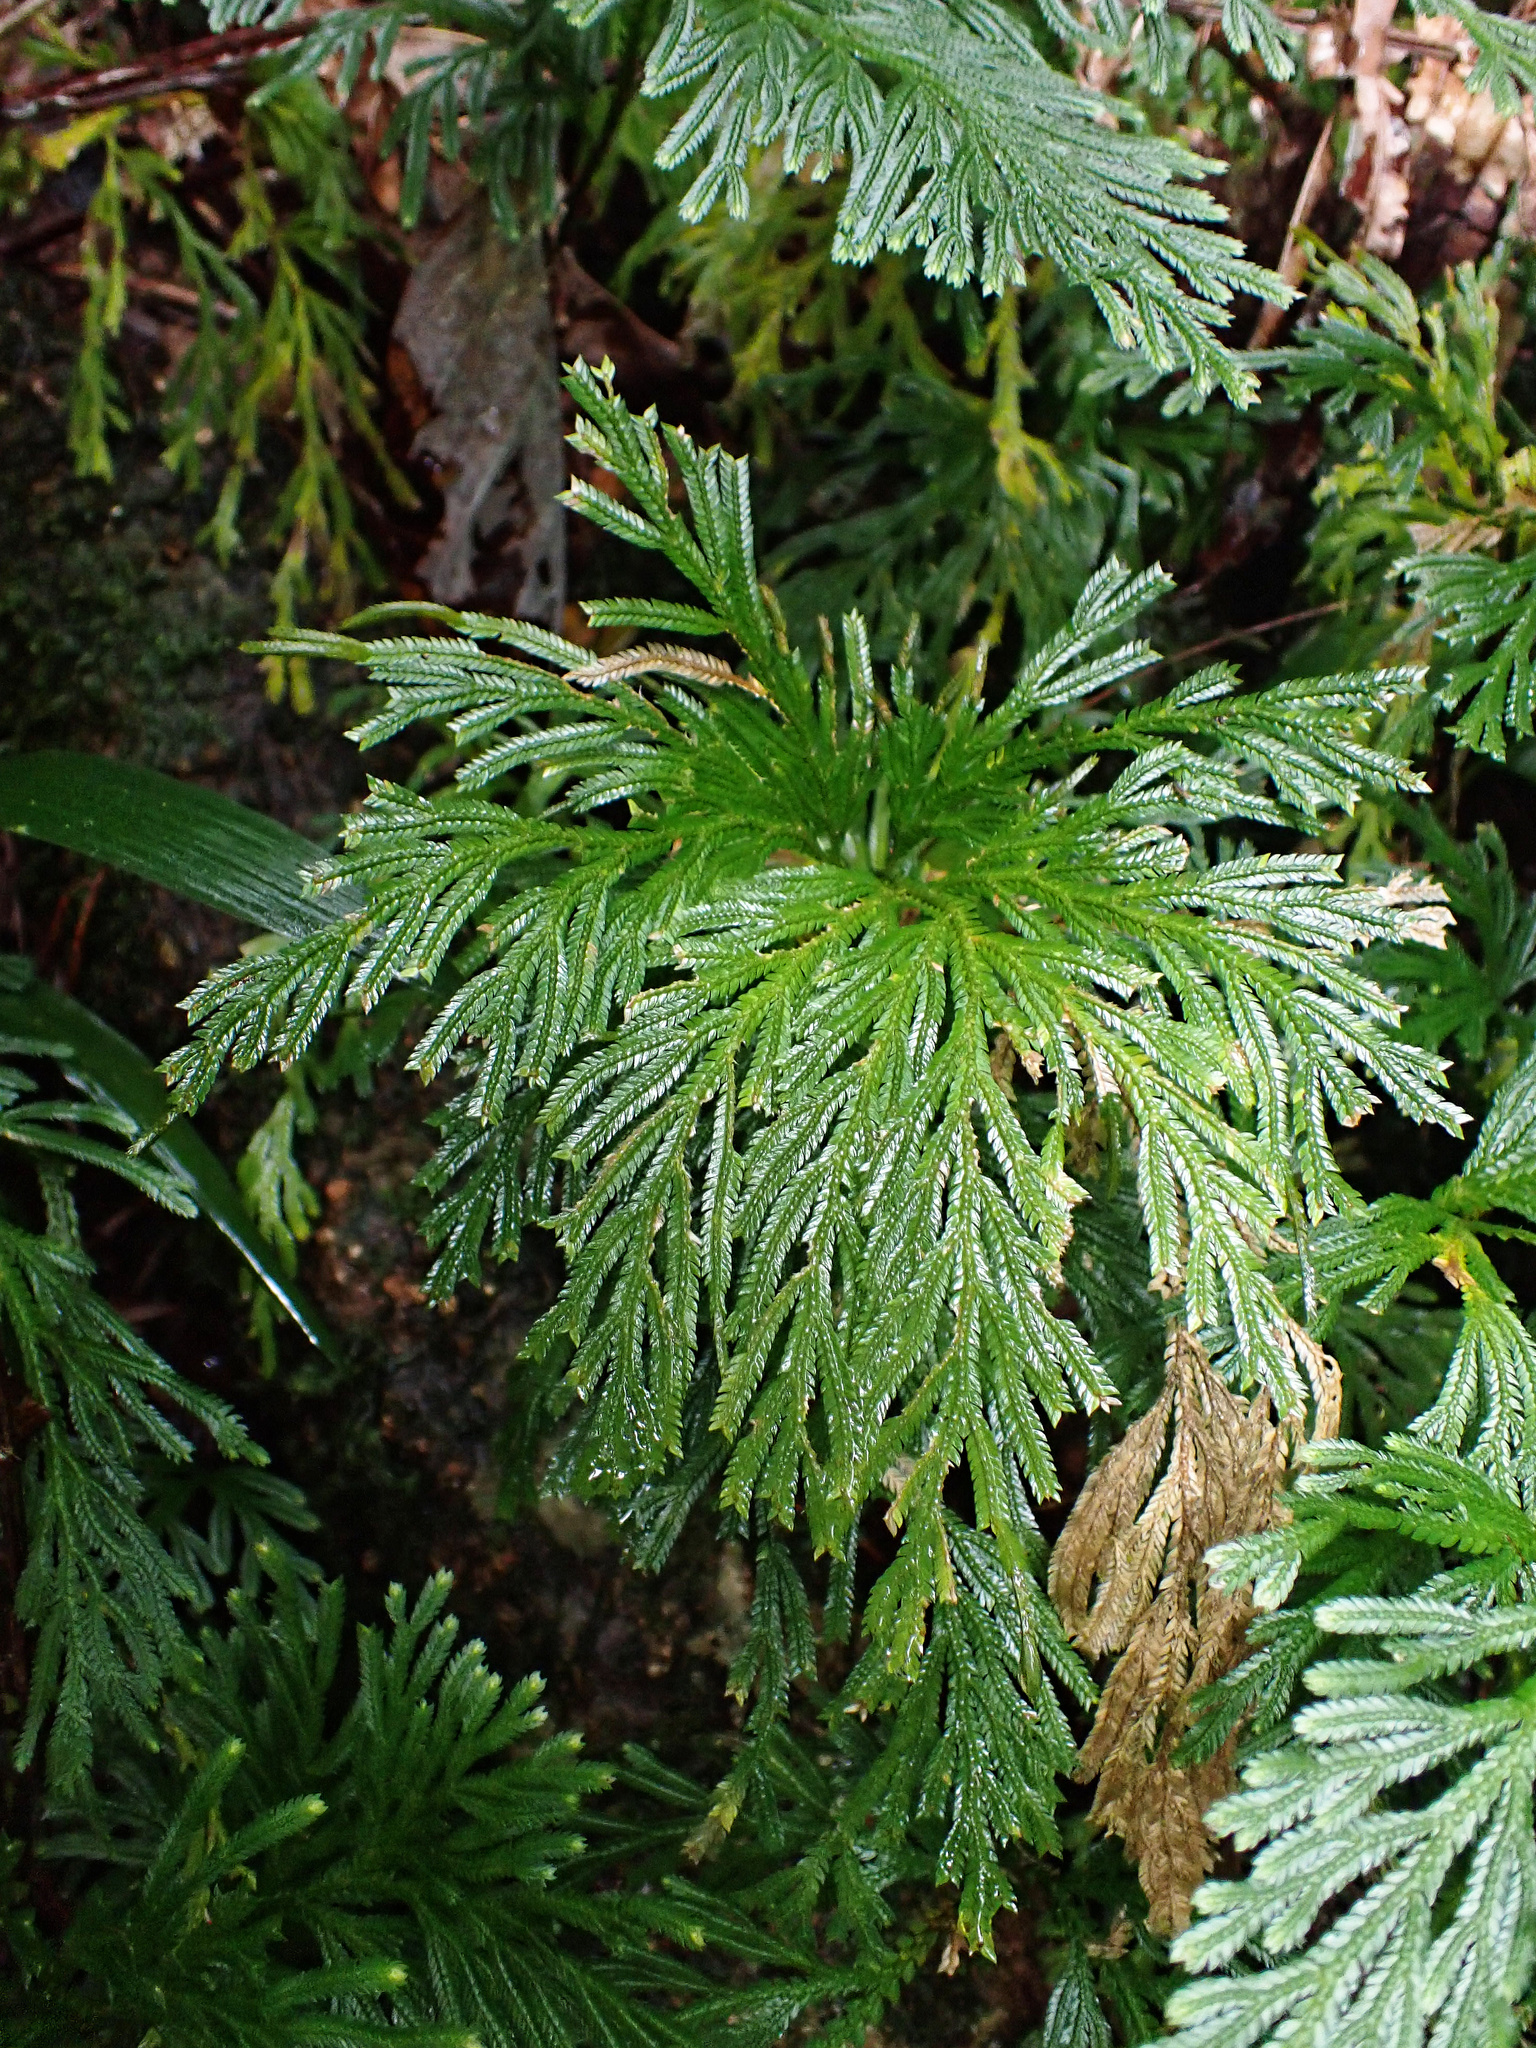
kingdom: Plantae
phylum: Tracheophyta
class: Lycopodiopsida
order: Selaginellales
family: Selaginellaceae
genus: Selaginella
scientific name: Selaginella longipinna
